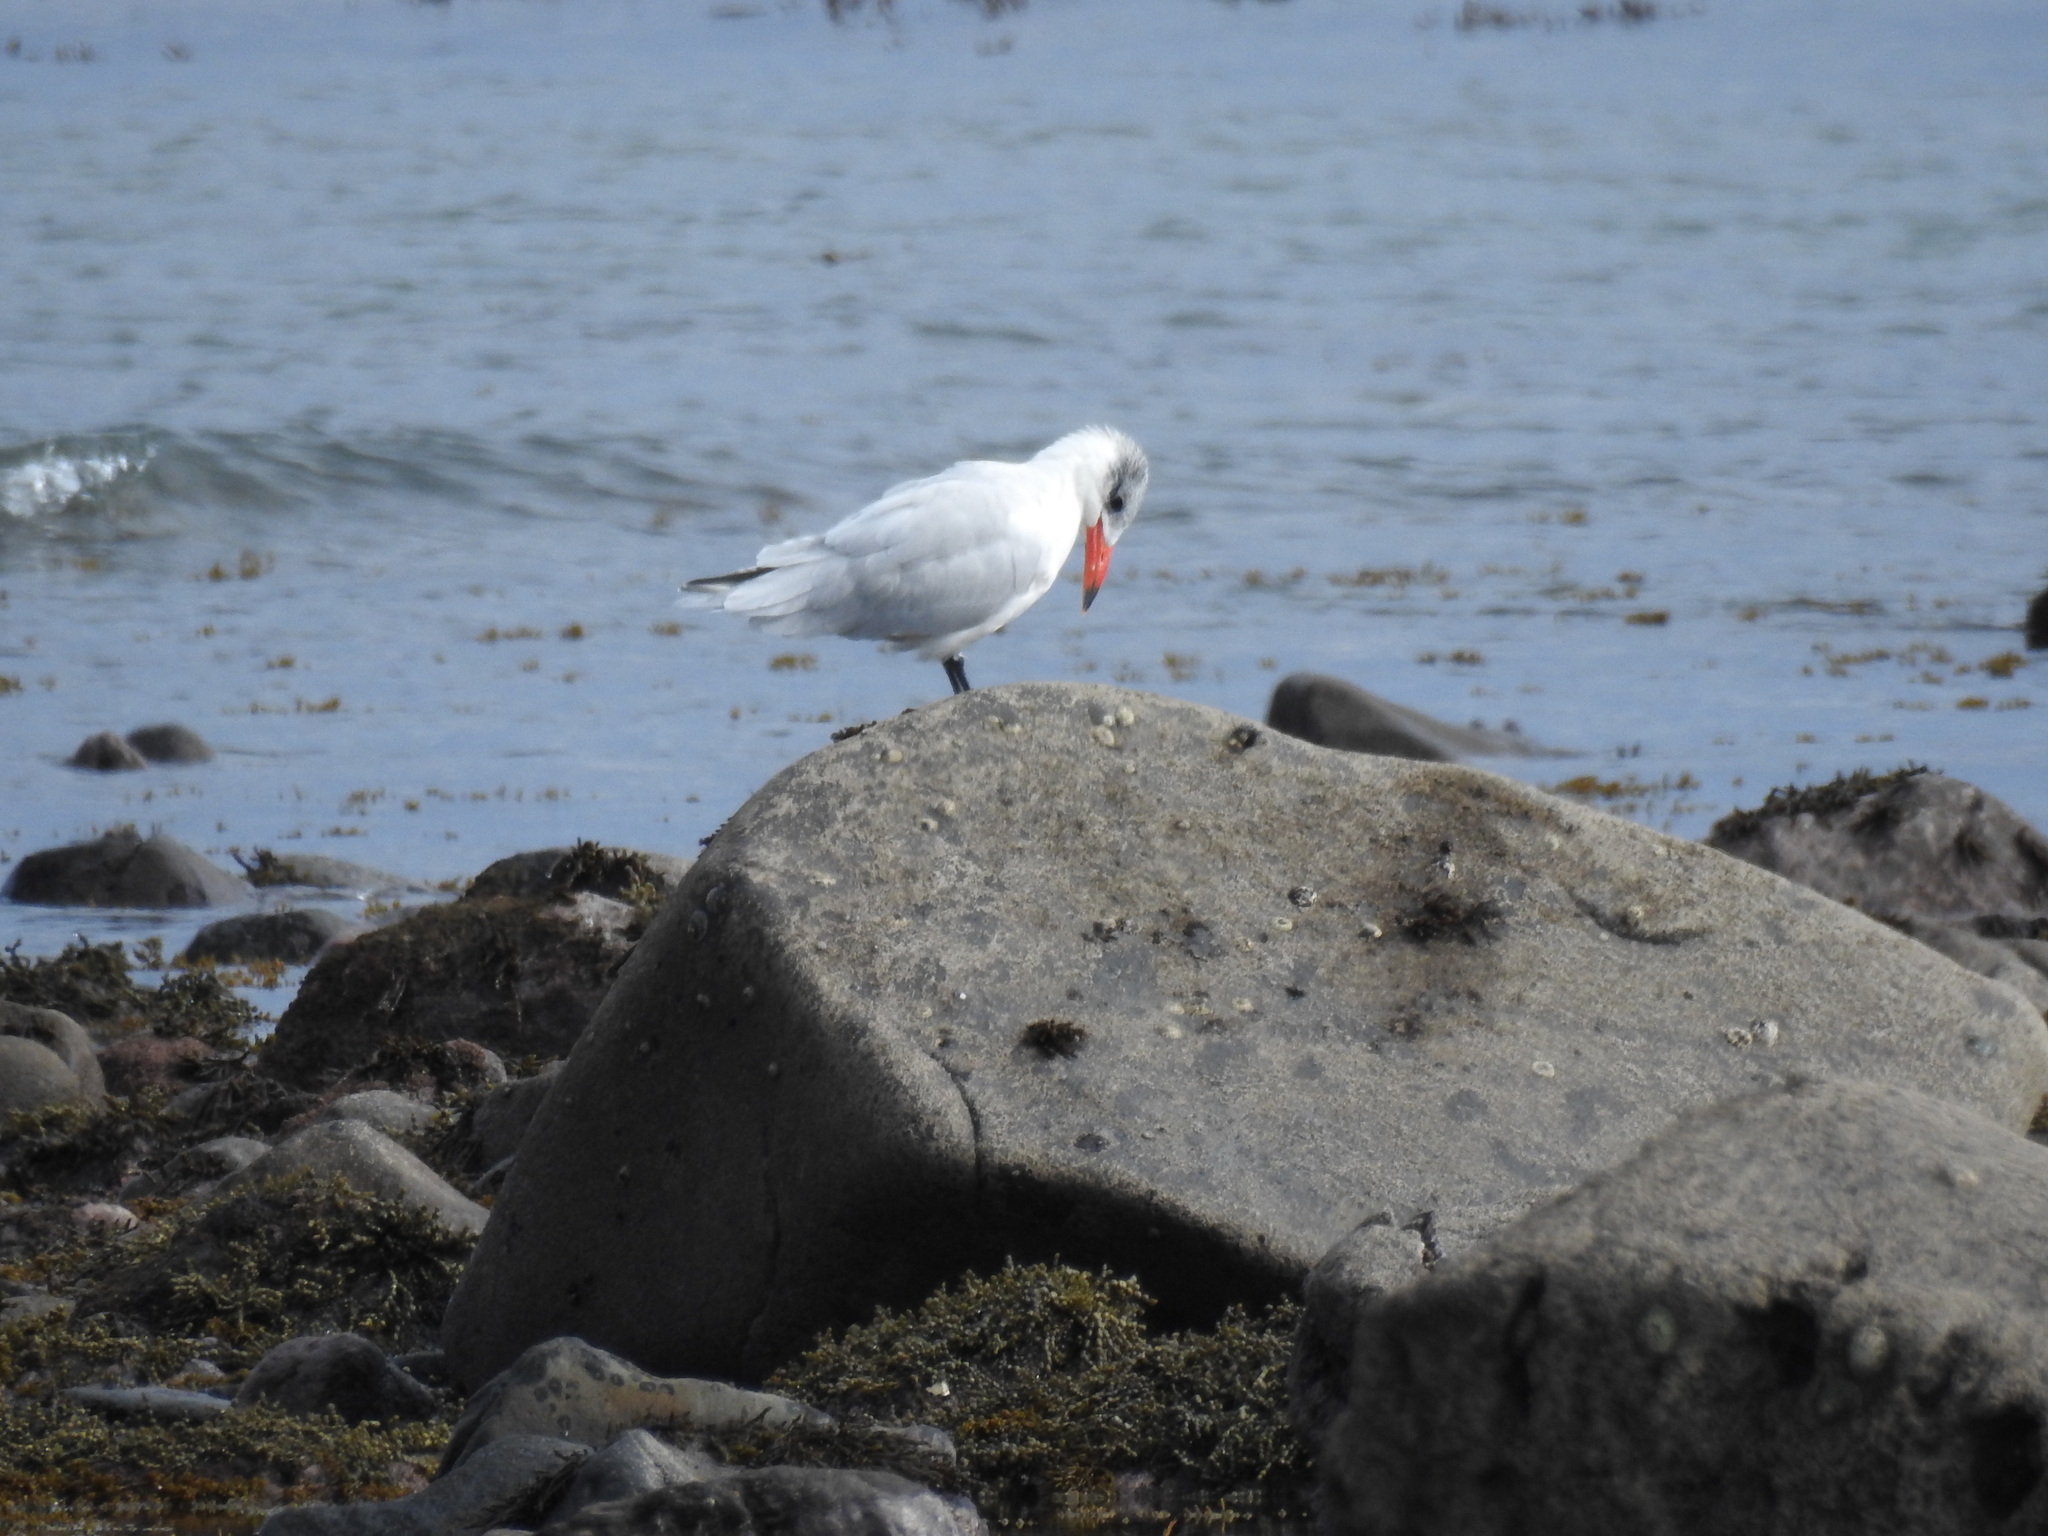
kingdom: Animalia
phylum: Chordata
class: Aves
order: Charadriiformes
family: Laridae
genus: Hydroprogne
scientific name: Hydroprogne caspia
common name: Caspian tern
